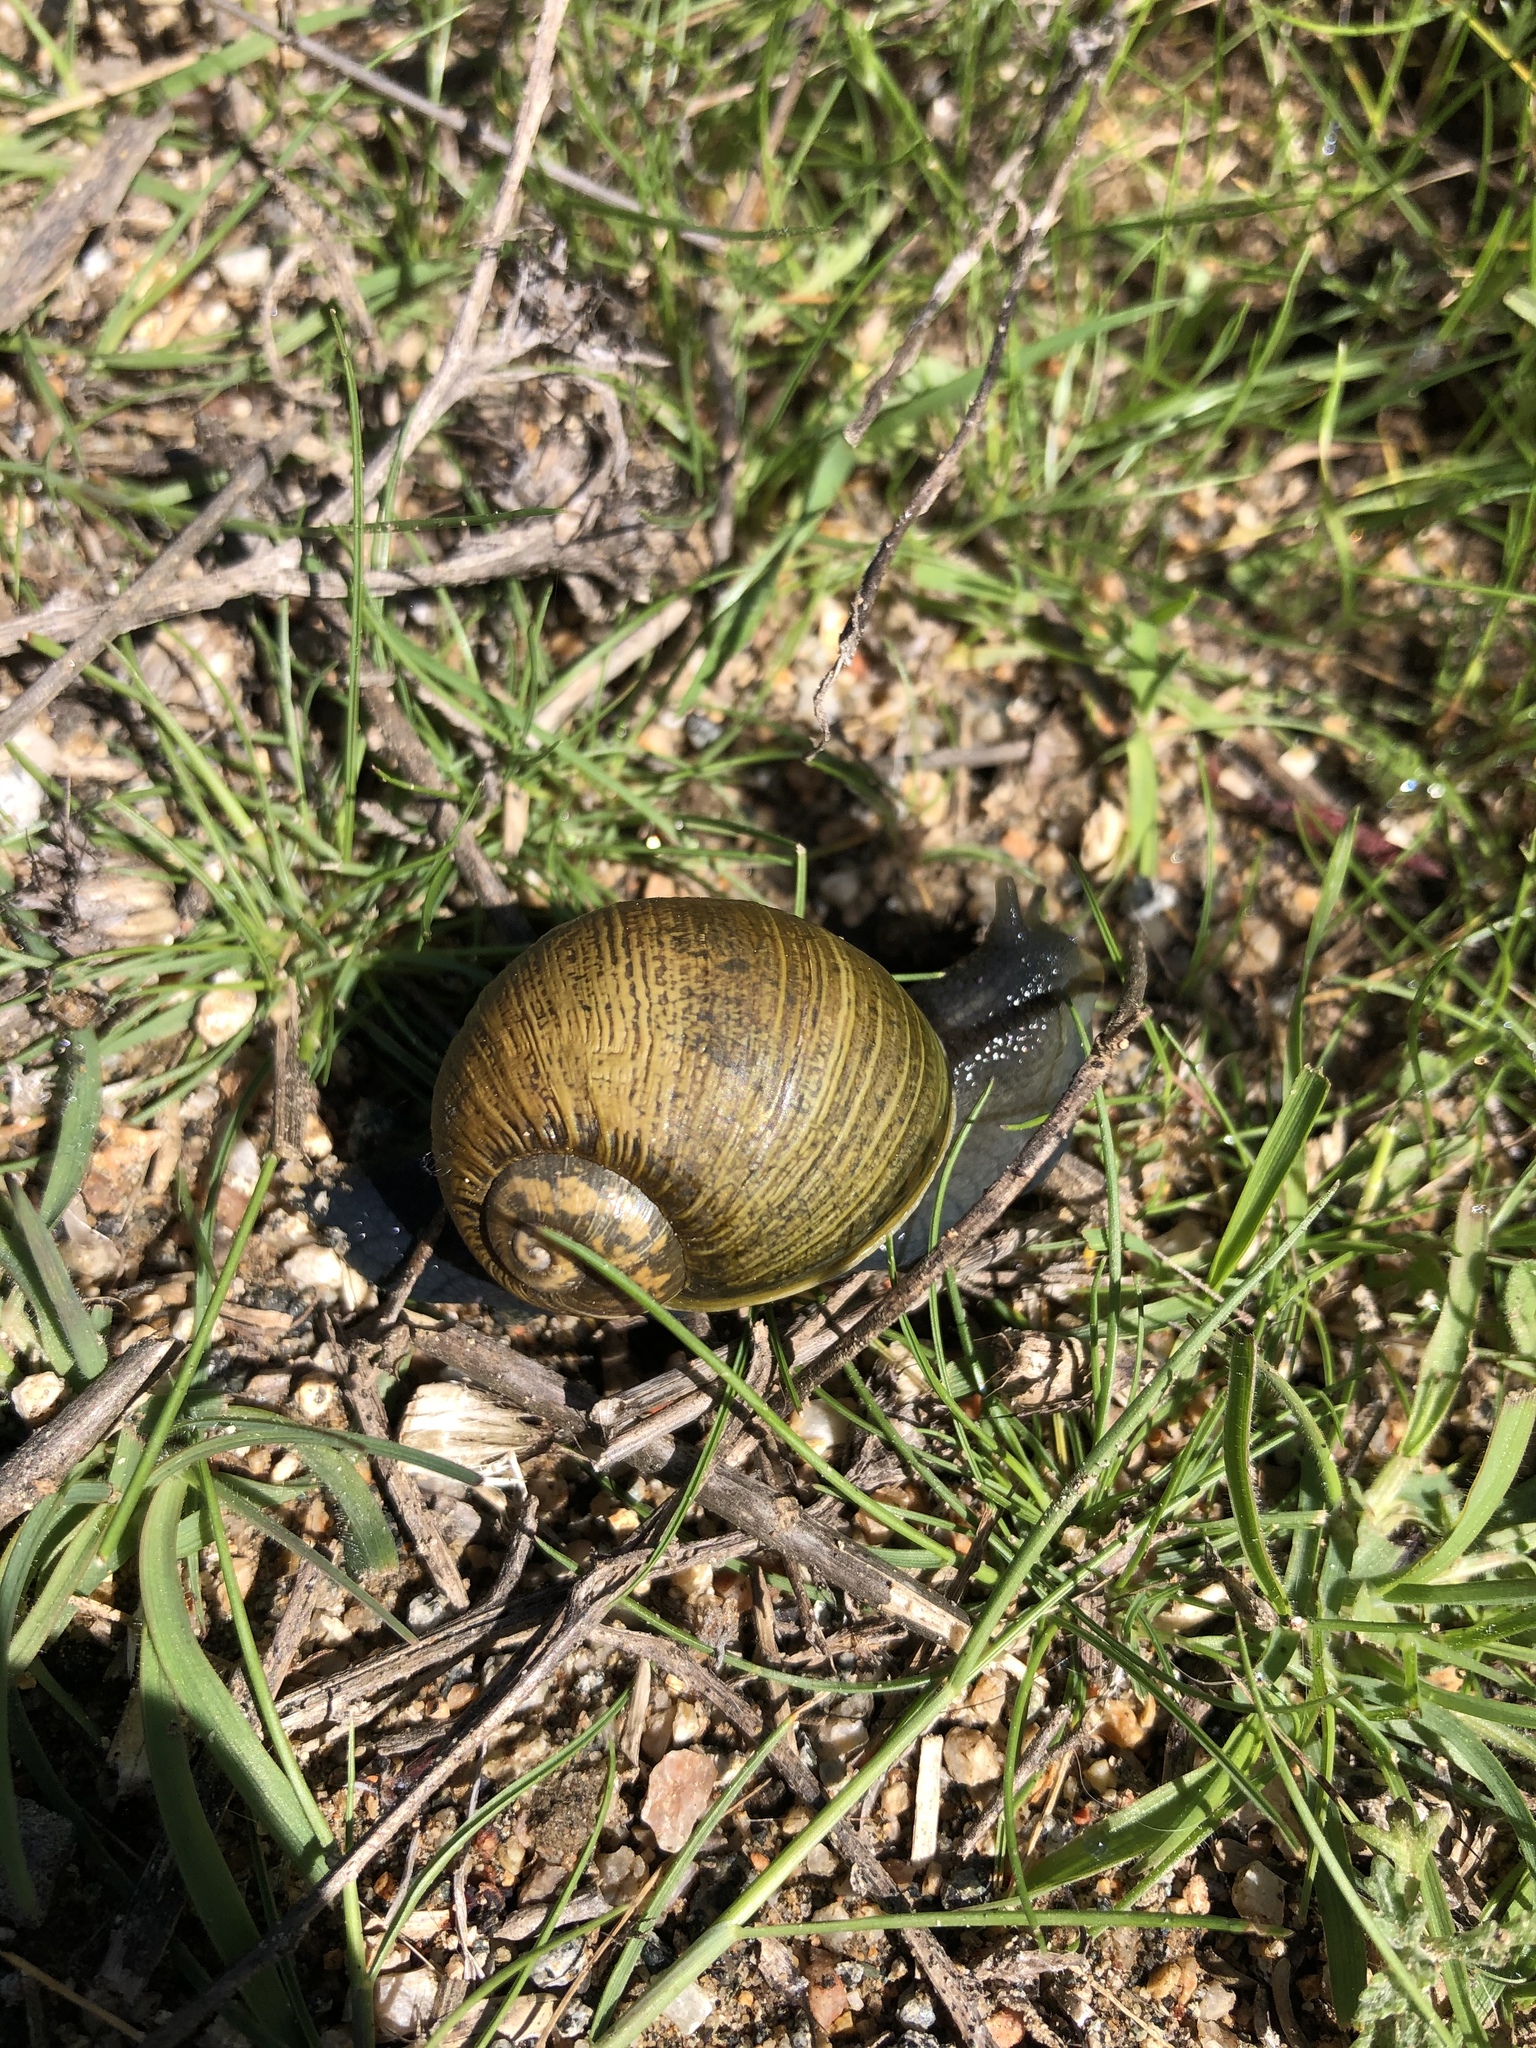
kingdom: Animalia
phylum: Mollusca
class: Gastropoda
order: Stylommatophora
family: Helicidae
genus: Cantareus
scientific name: Cantareus apertus
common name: Green gardensnail
